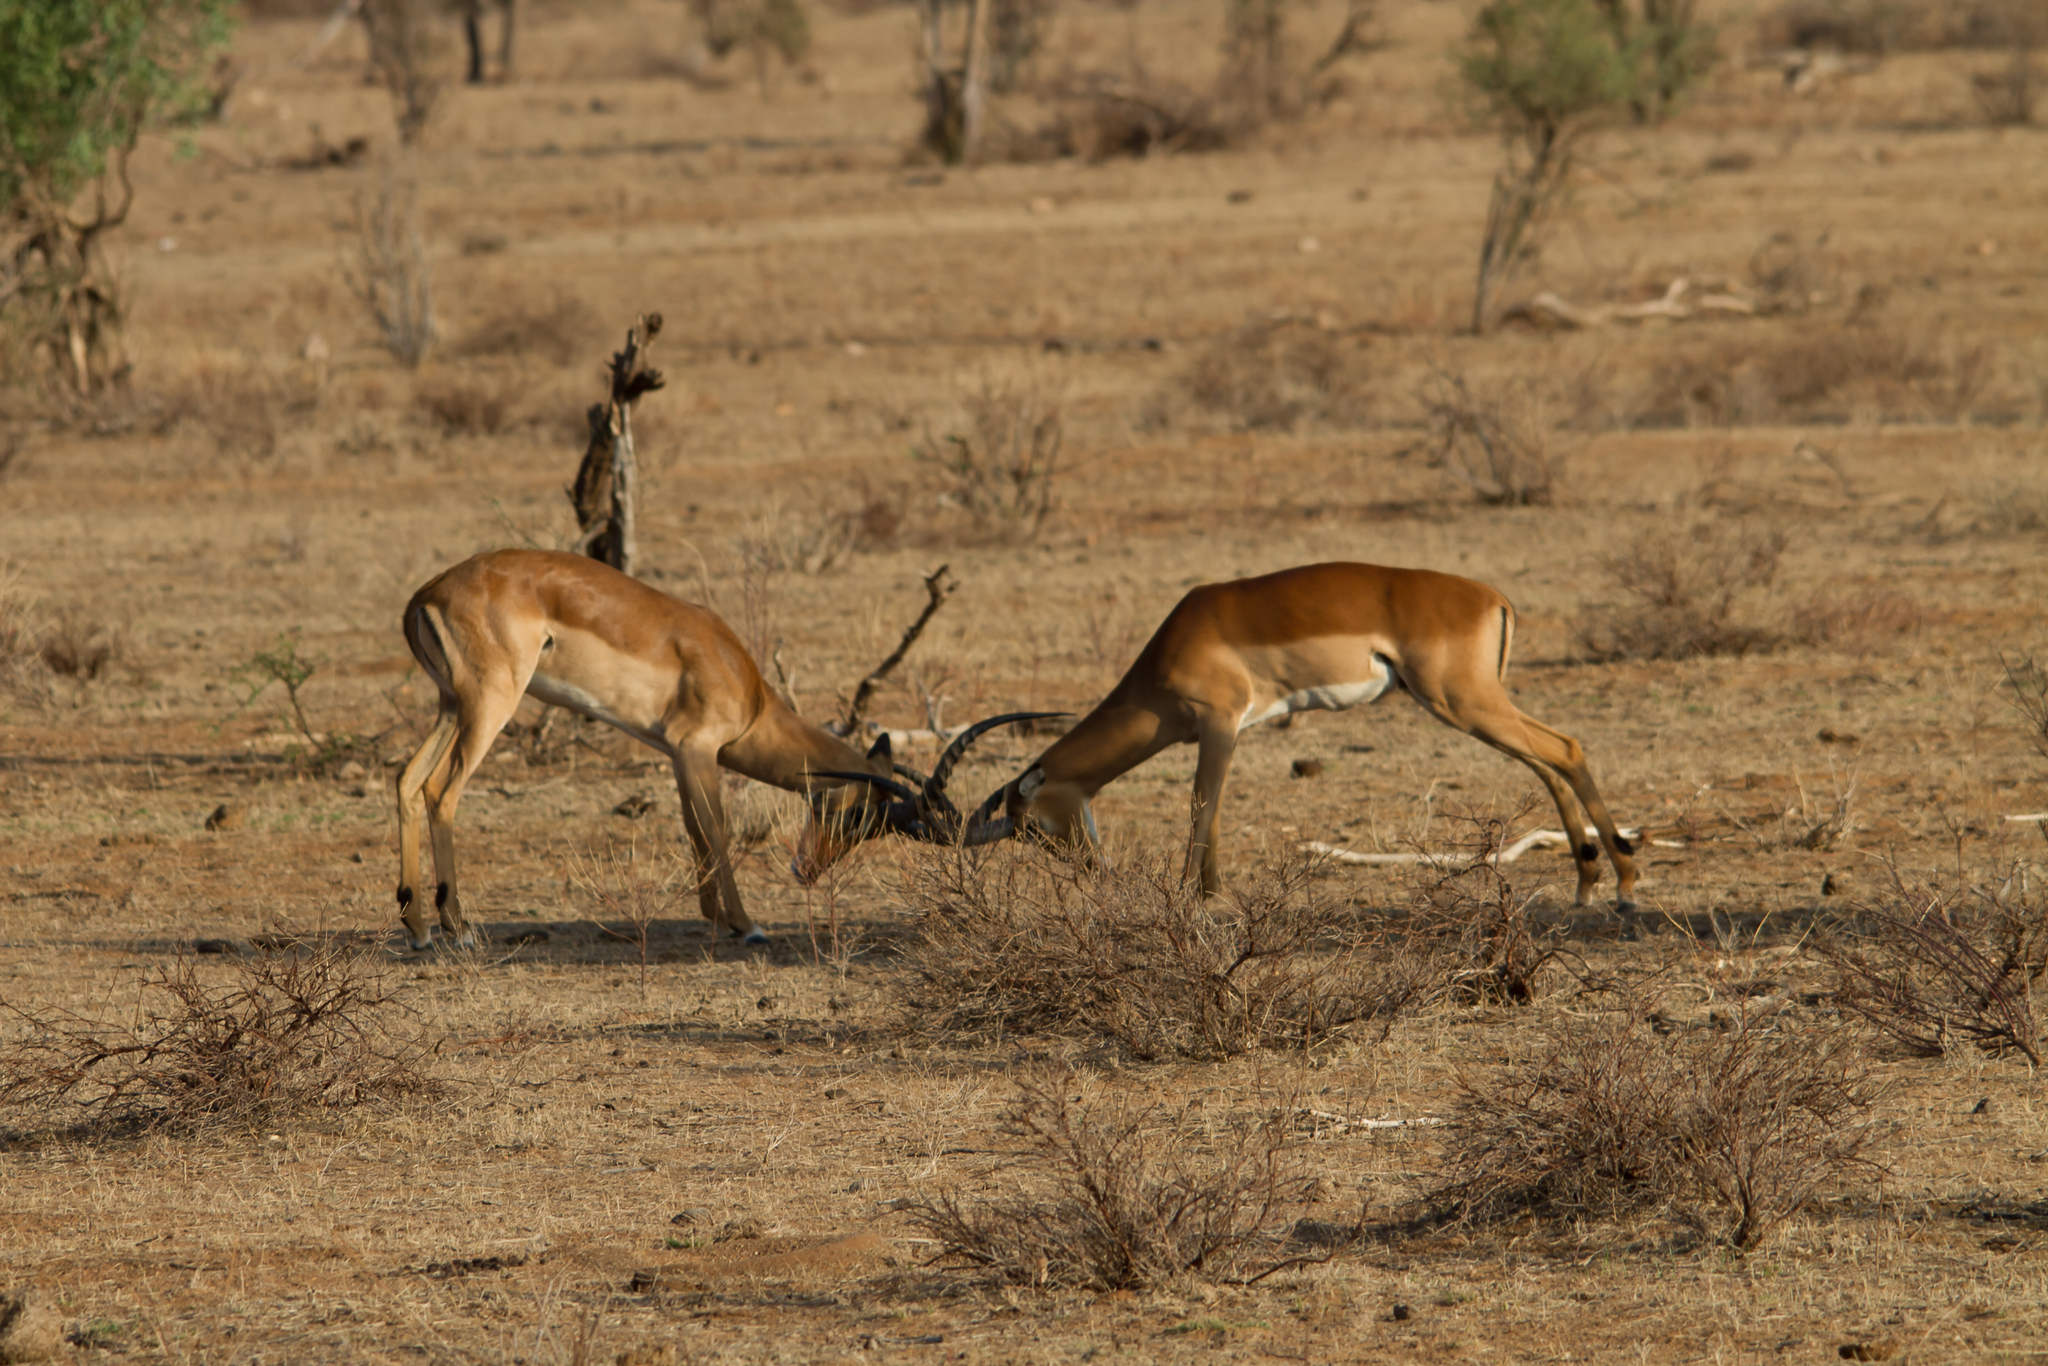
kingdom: Animalia
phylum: Chordata
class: Mammalia
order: Artiodactyla
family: Bovidae
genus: Aepyceros
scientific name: Aepyceros melampus
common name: Impala
